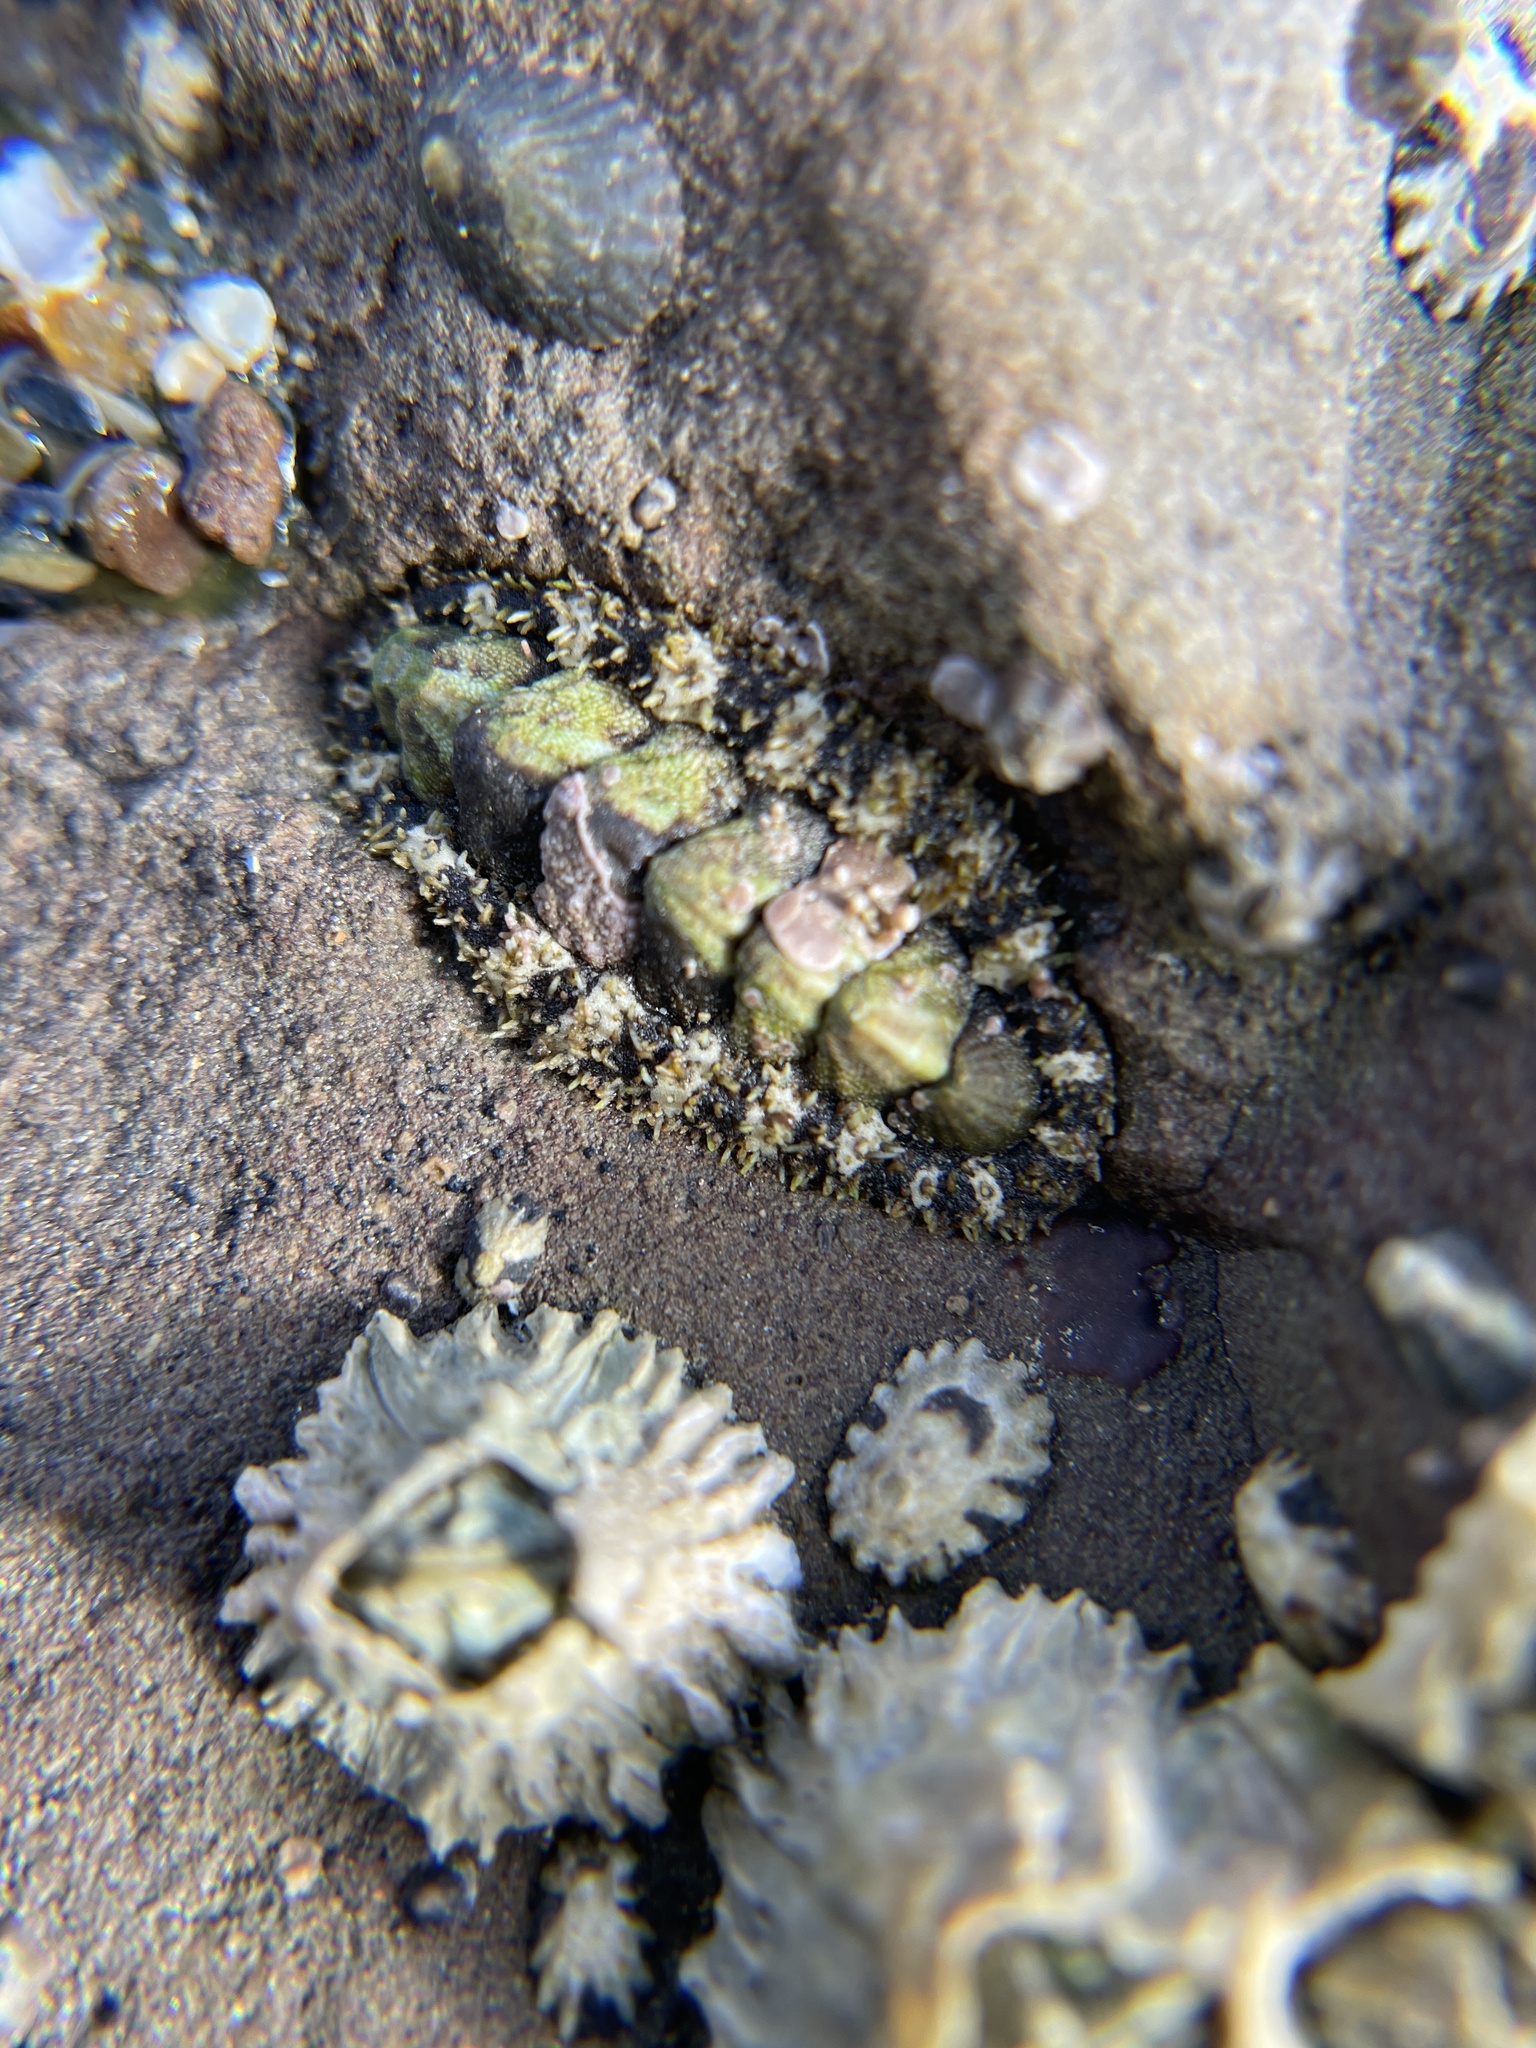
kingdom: Animalia
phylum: Mollusca
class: Polyplacophora
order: Chitonida
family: Tonicellidae
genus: Nuttallina
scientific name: Nuttallina californica
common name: California nuttall chiton
